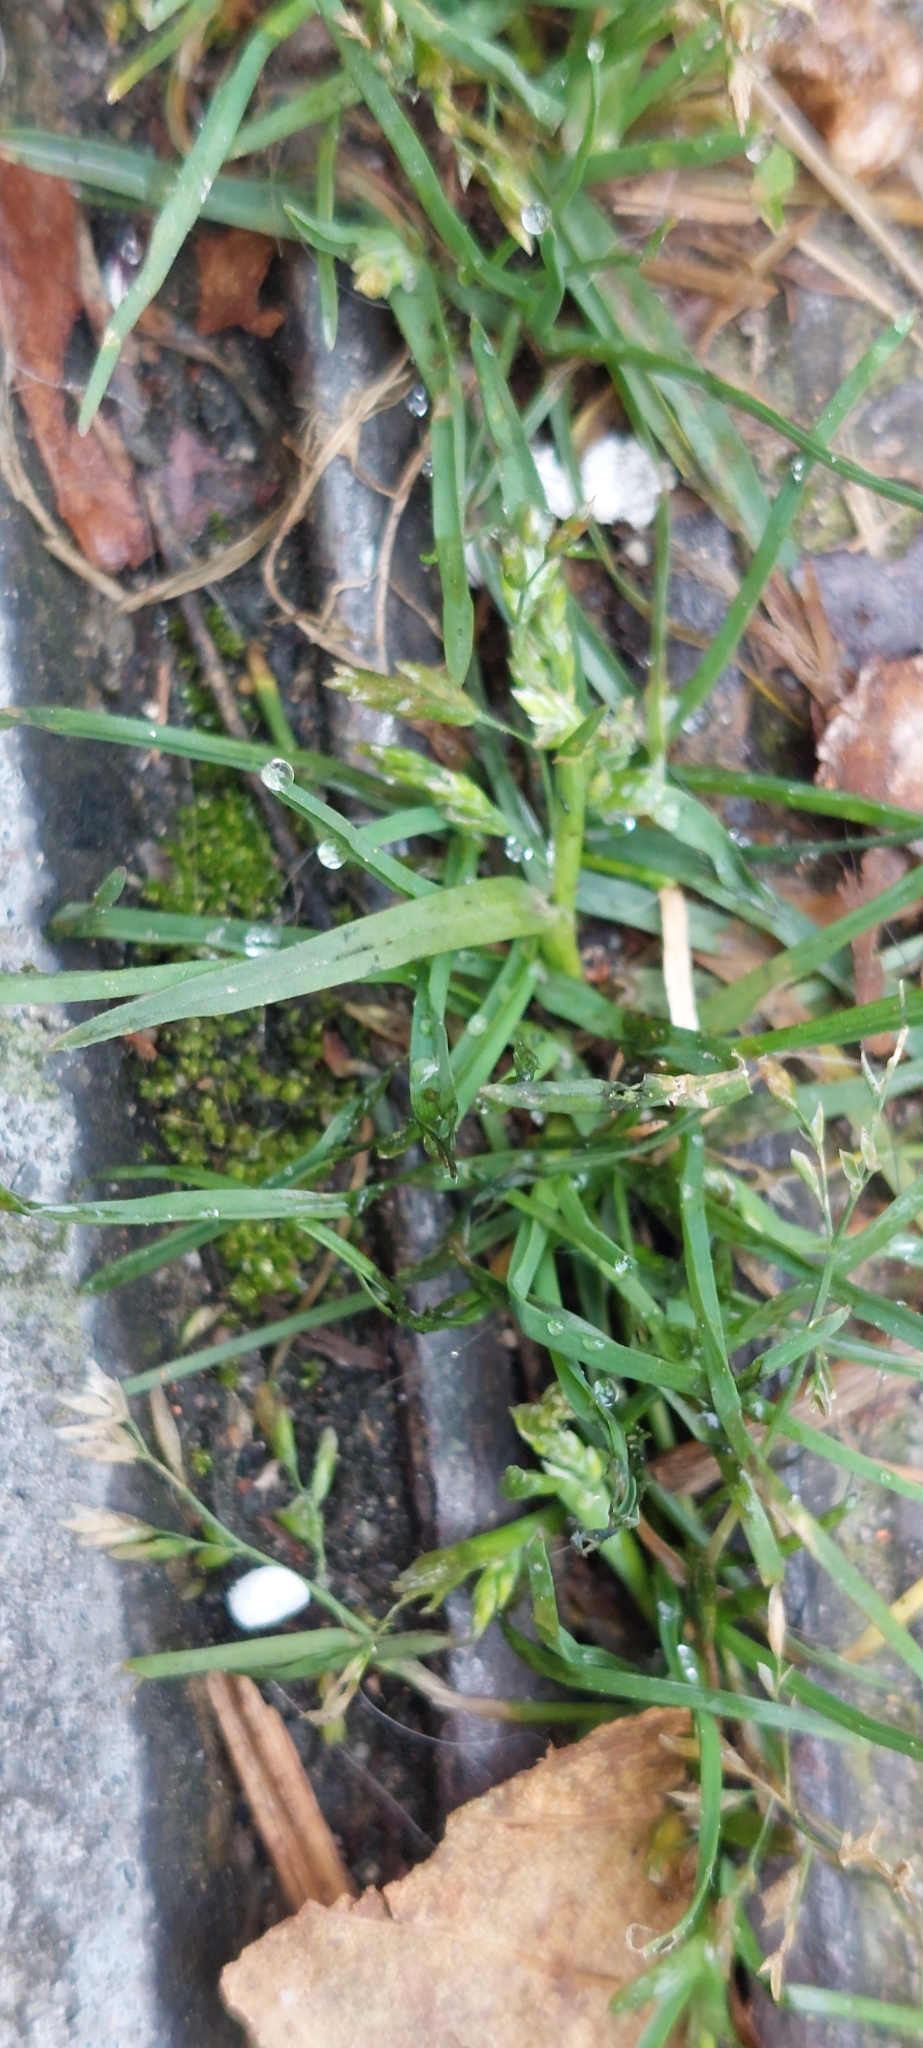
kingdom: Plantae
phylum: Tracheophyta
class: Liliopsida
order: Poales
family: Poaceae
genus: Poa
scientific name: Poa annua
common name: Annual bluegrass
